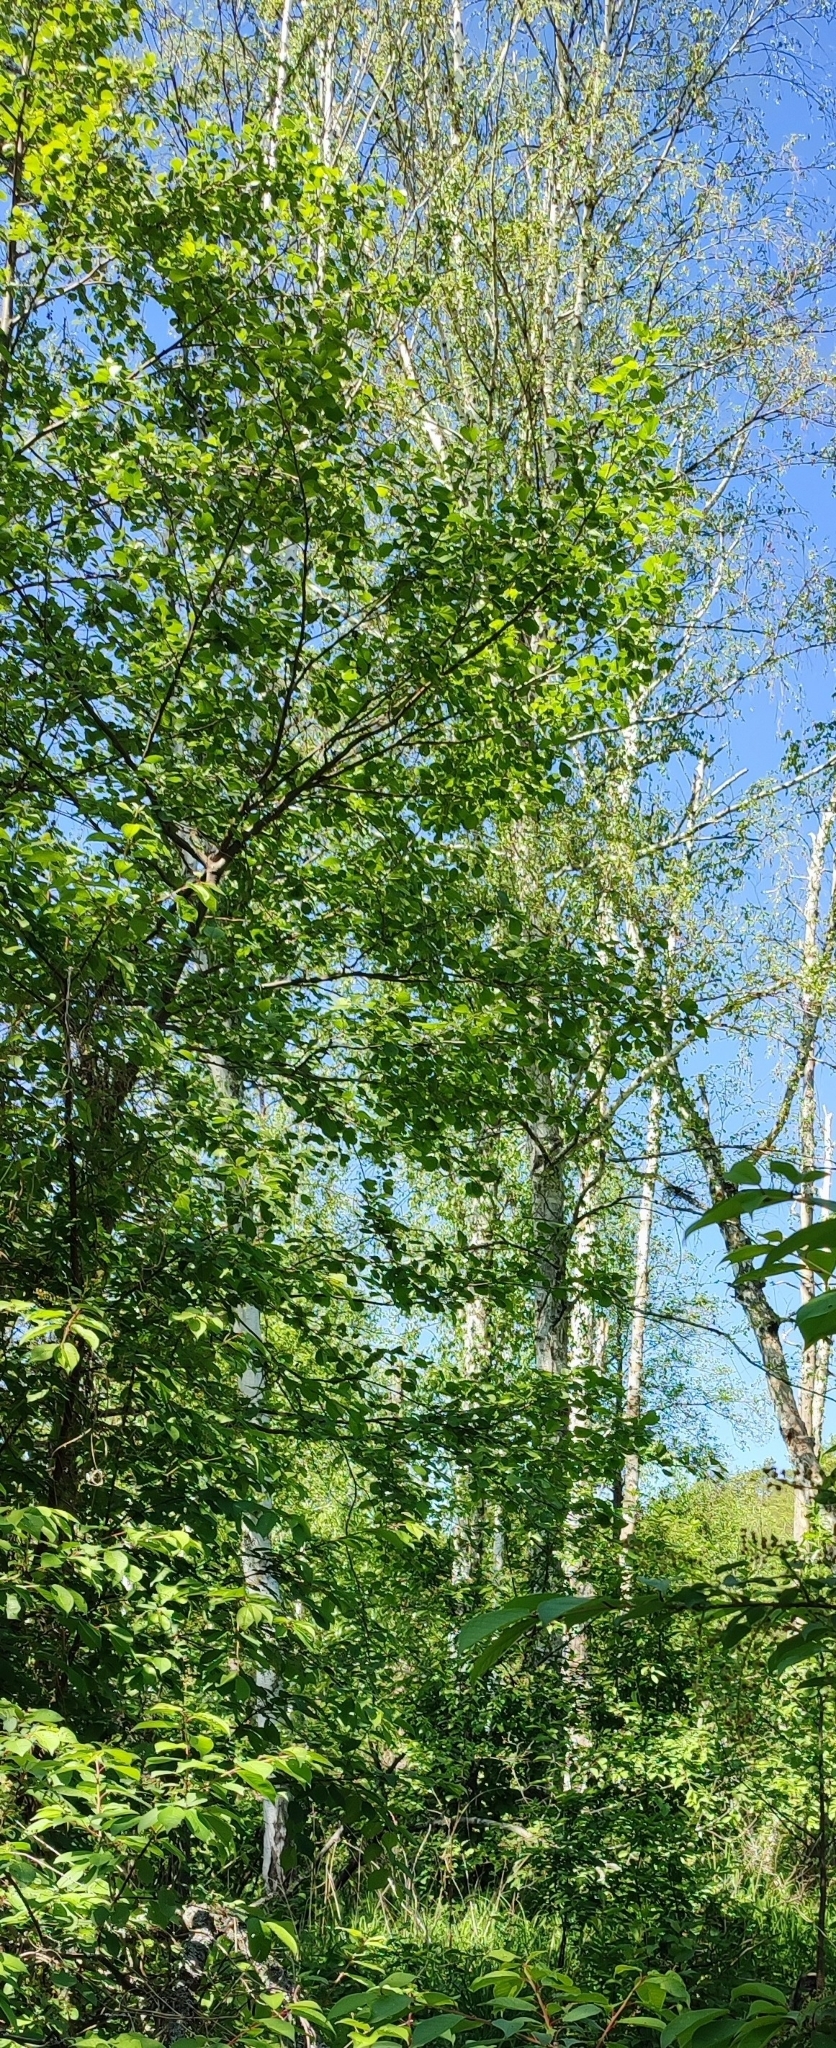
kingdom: Plantae
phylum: Tracheophyta
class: Magnoliopsida
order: Fagales
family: Betulaceae
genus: Betula
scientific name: Betula pendula
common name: Silver birch
